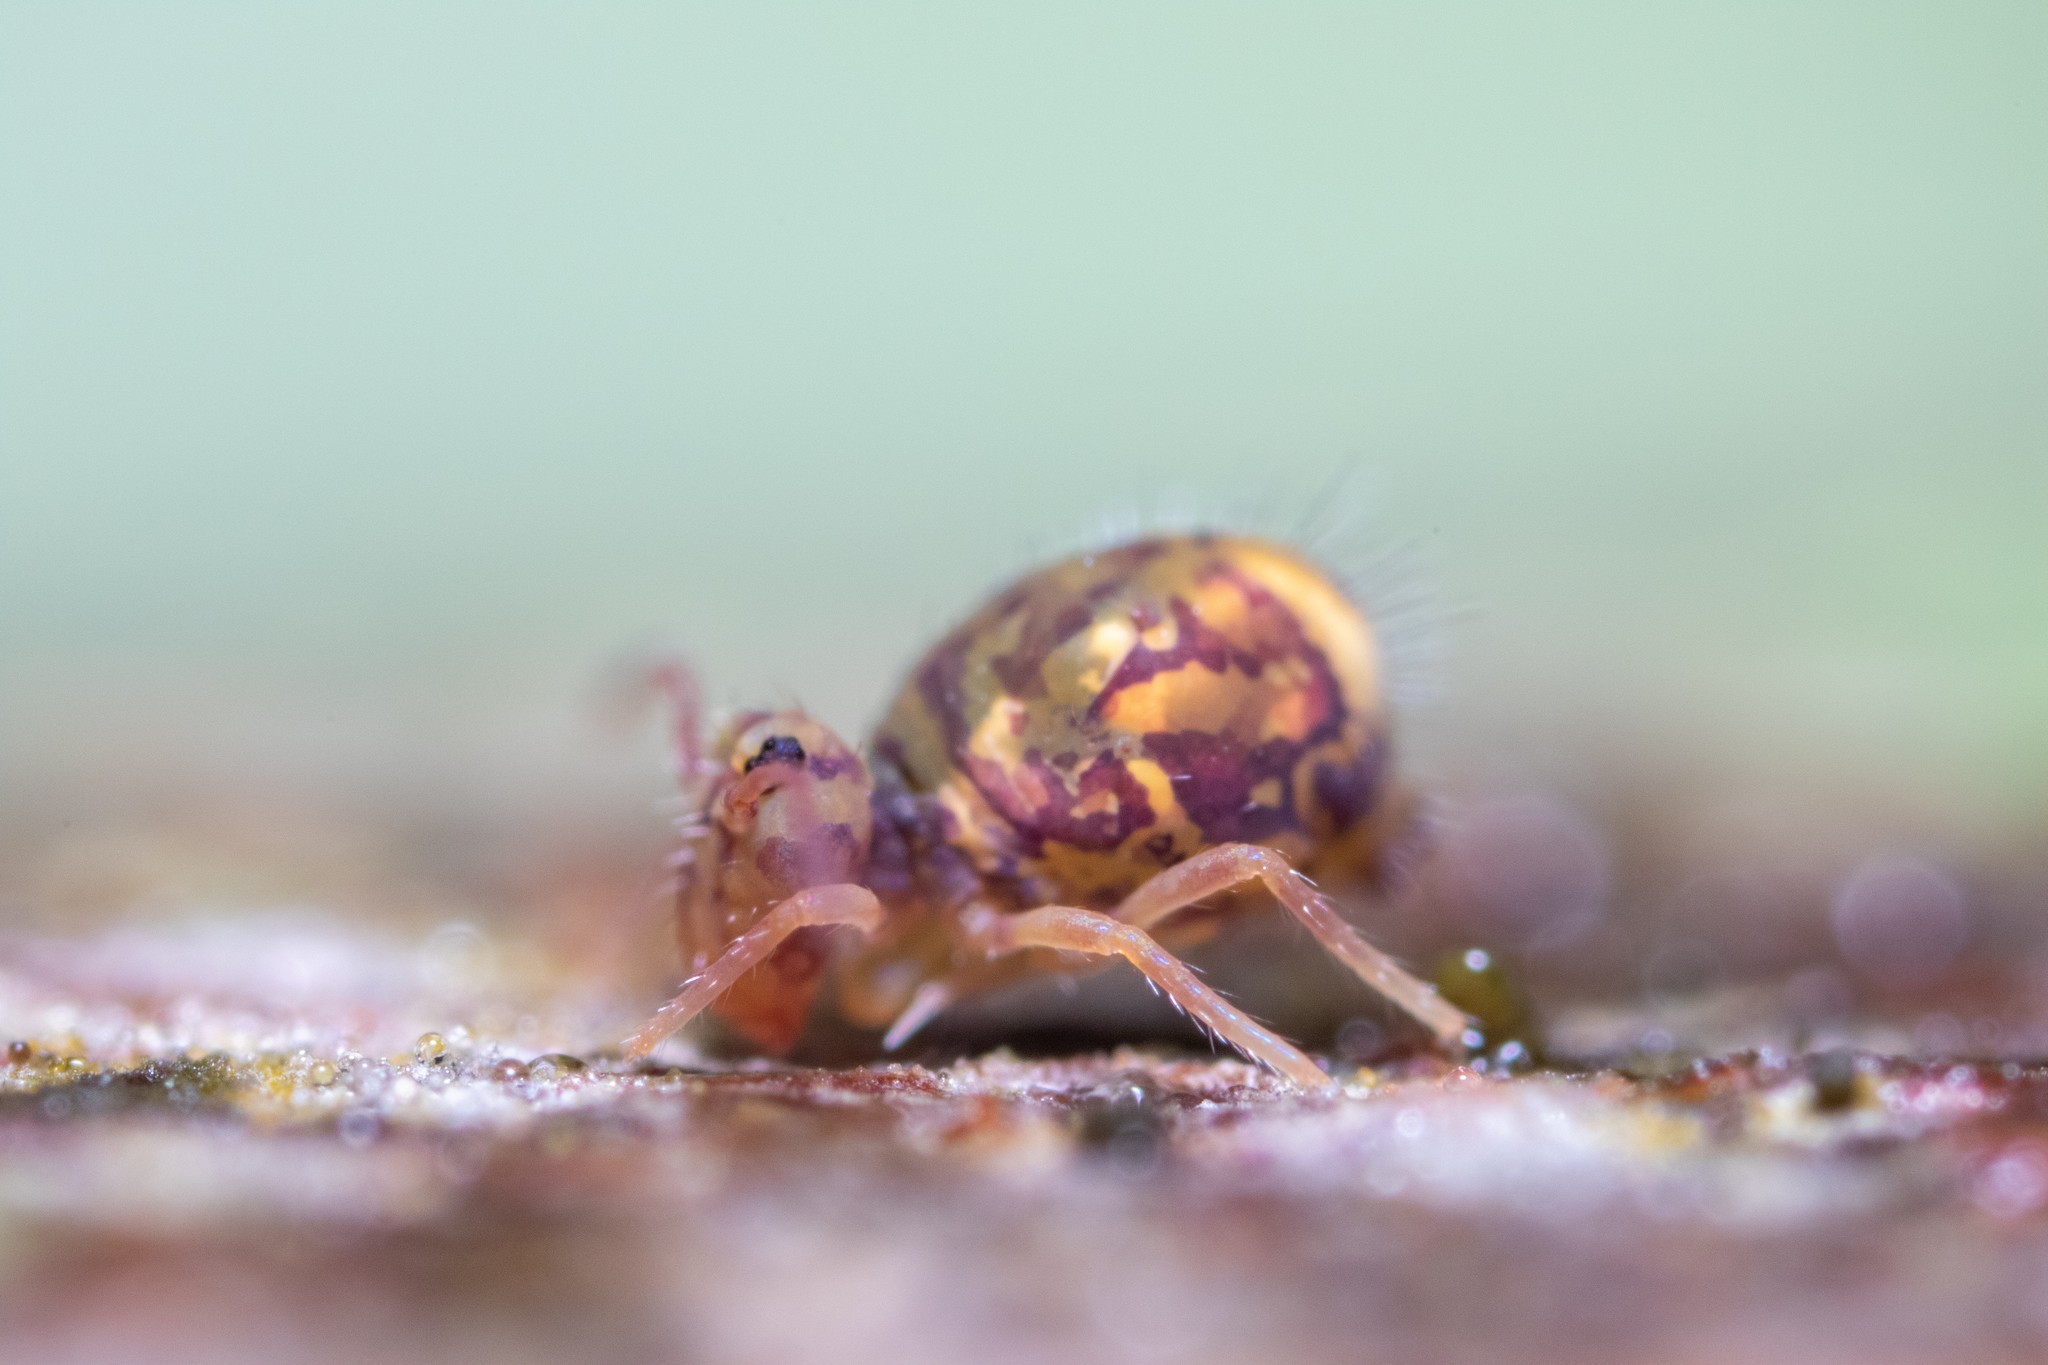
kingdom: Animalia
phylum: Arthropoda
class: Collembola
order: Symphypleona
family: Dicyrtomidae
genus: Dicyrtomina
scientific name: Dicyrtomina ornata
